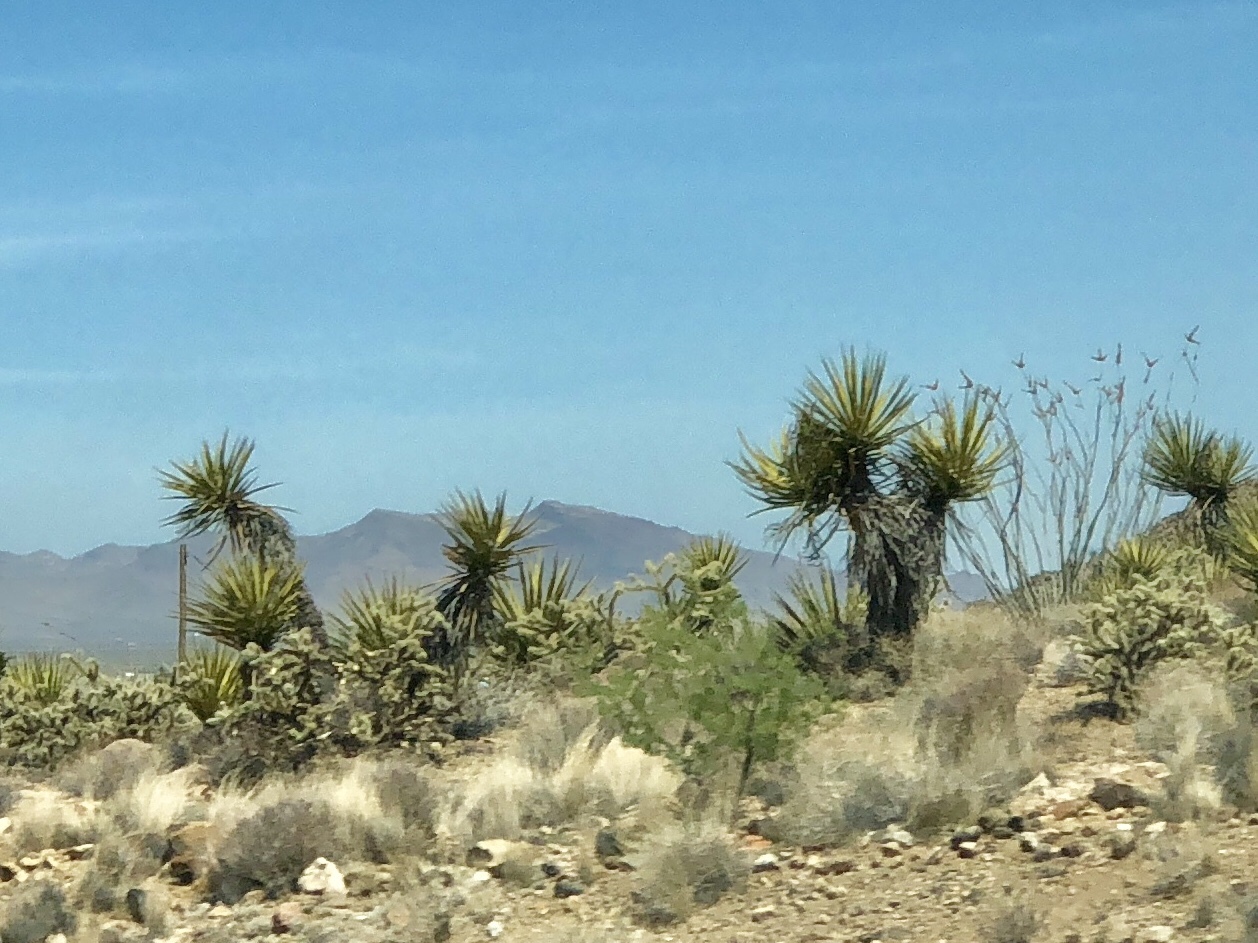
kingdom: Plantae
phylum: Tracheophyta
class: Liliopsida
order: Asparagales
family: Asparagaceae
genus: Yucca
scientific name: Yucca schidigera
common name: Mojave yucca
